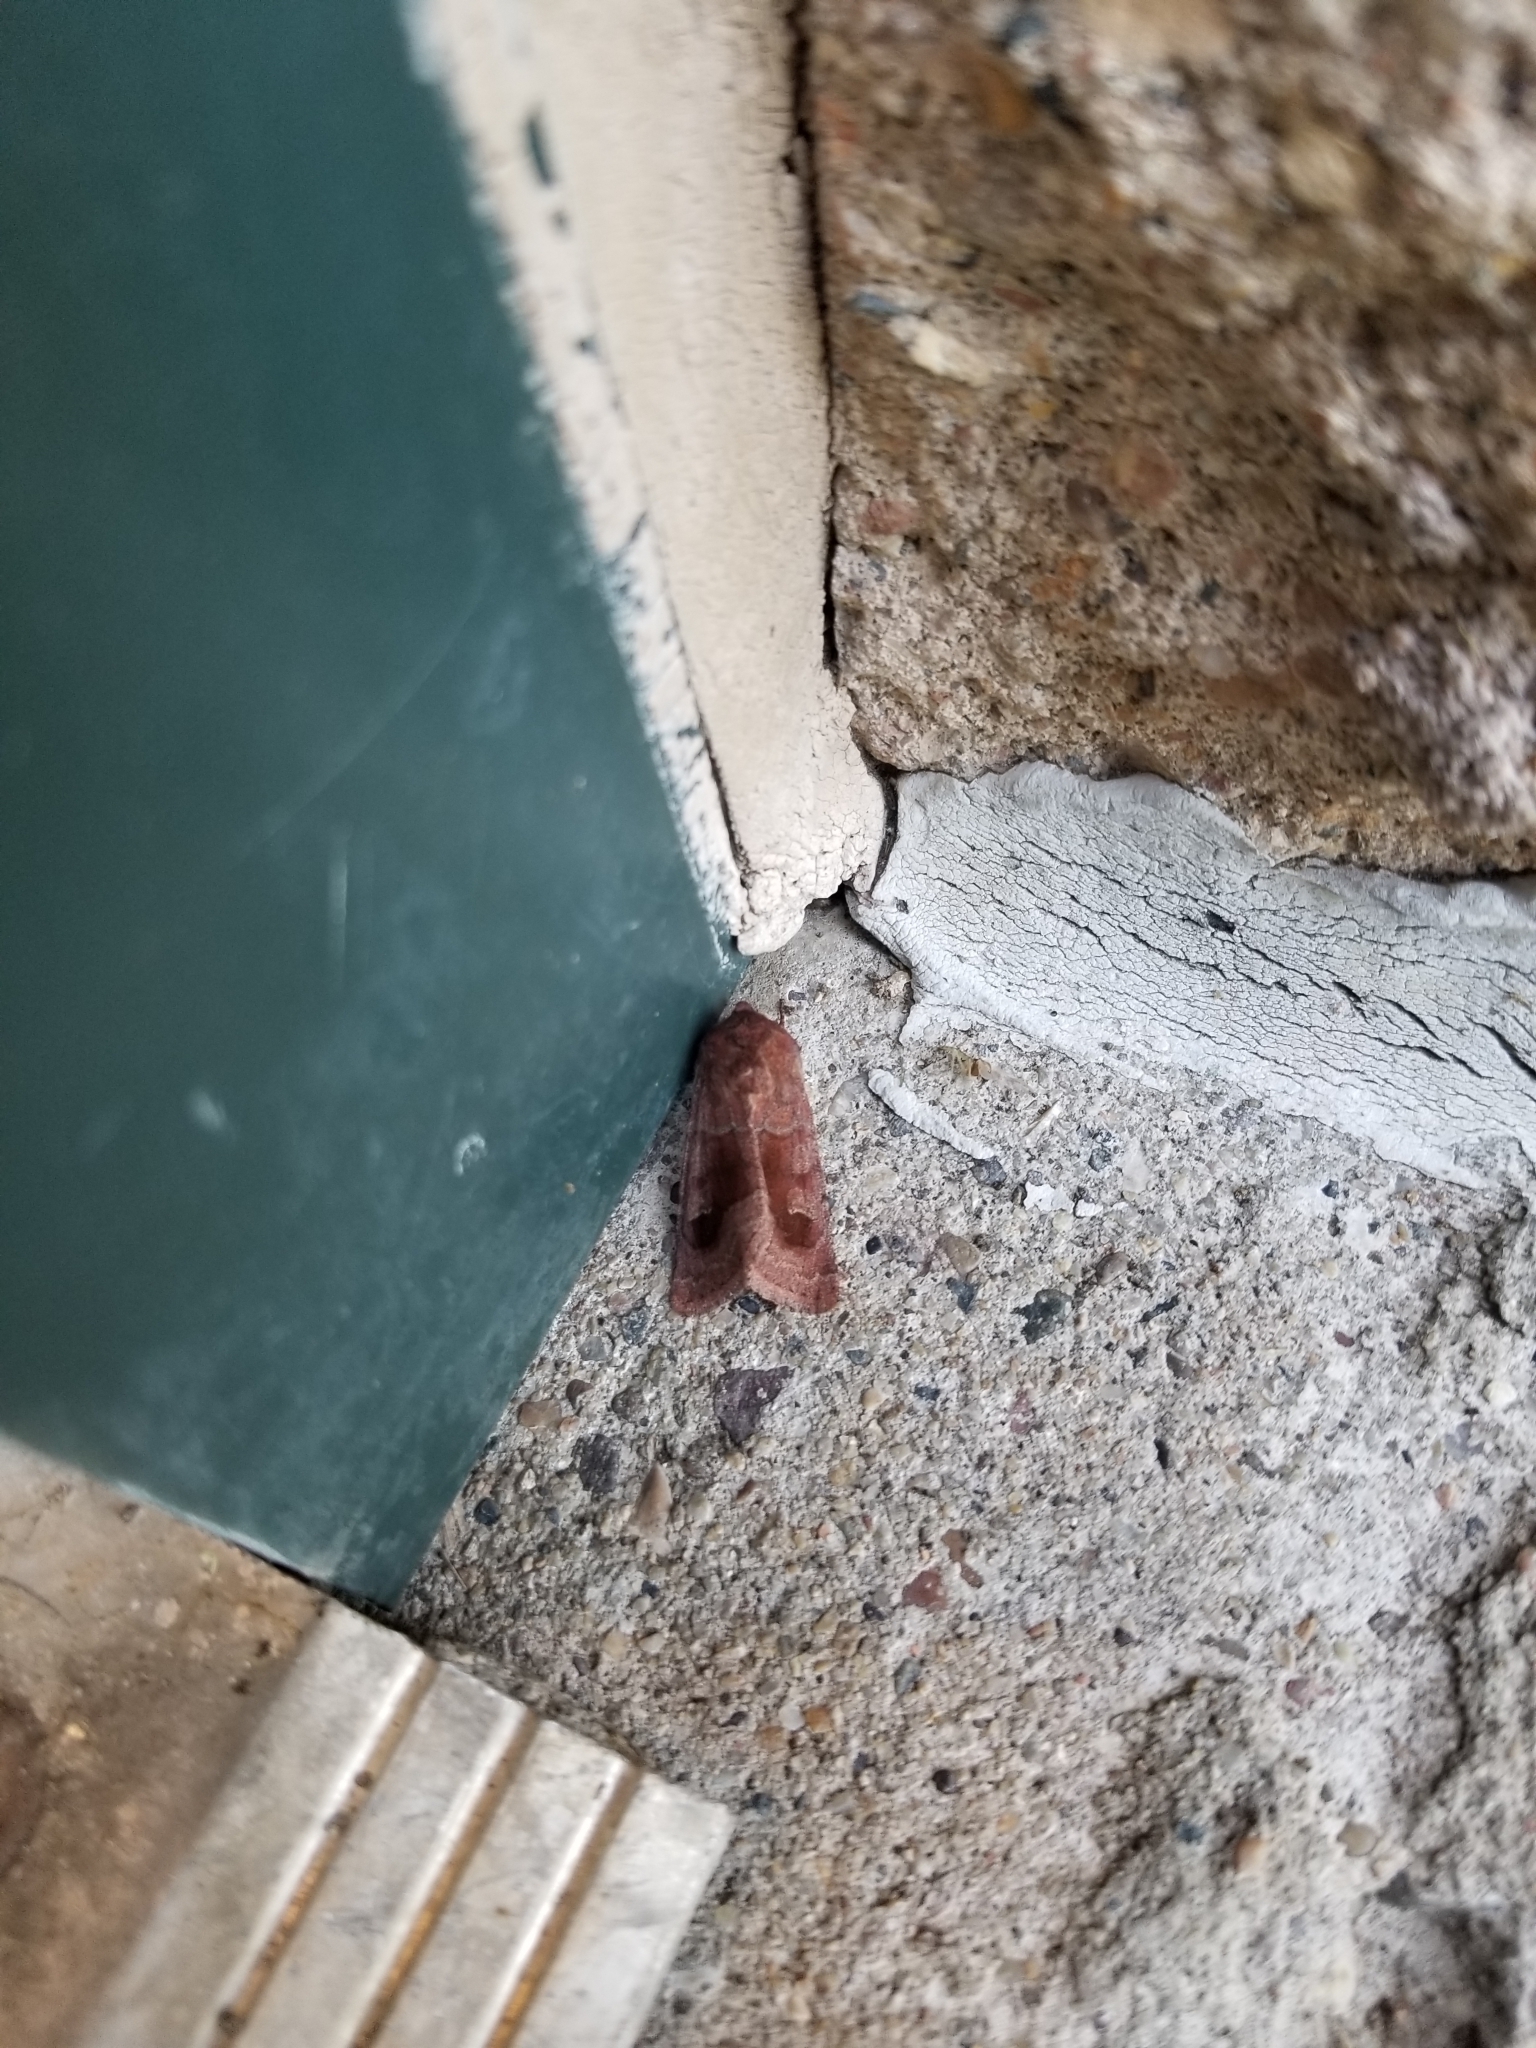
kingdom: Animalia
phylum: Arthropoda
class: Insecta
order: Lepidoptera
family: Noctuidae
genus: Nephelodes
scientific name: Nephelodes minians
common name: Bronzed cutworm
